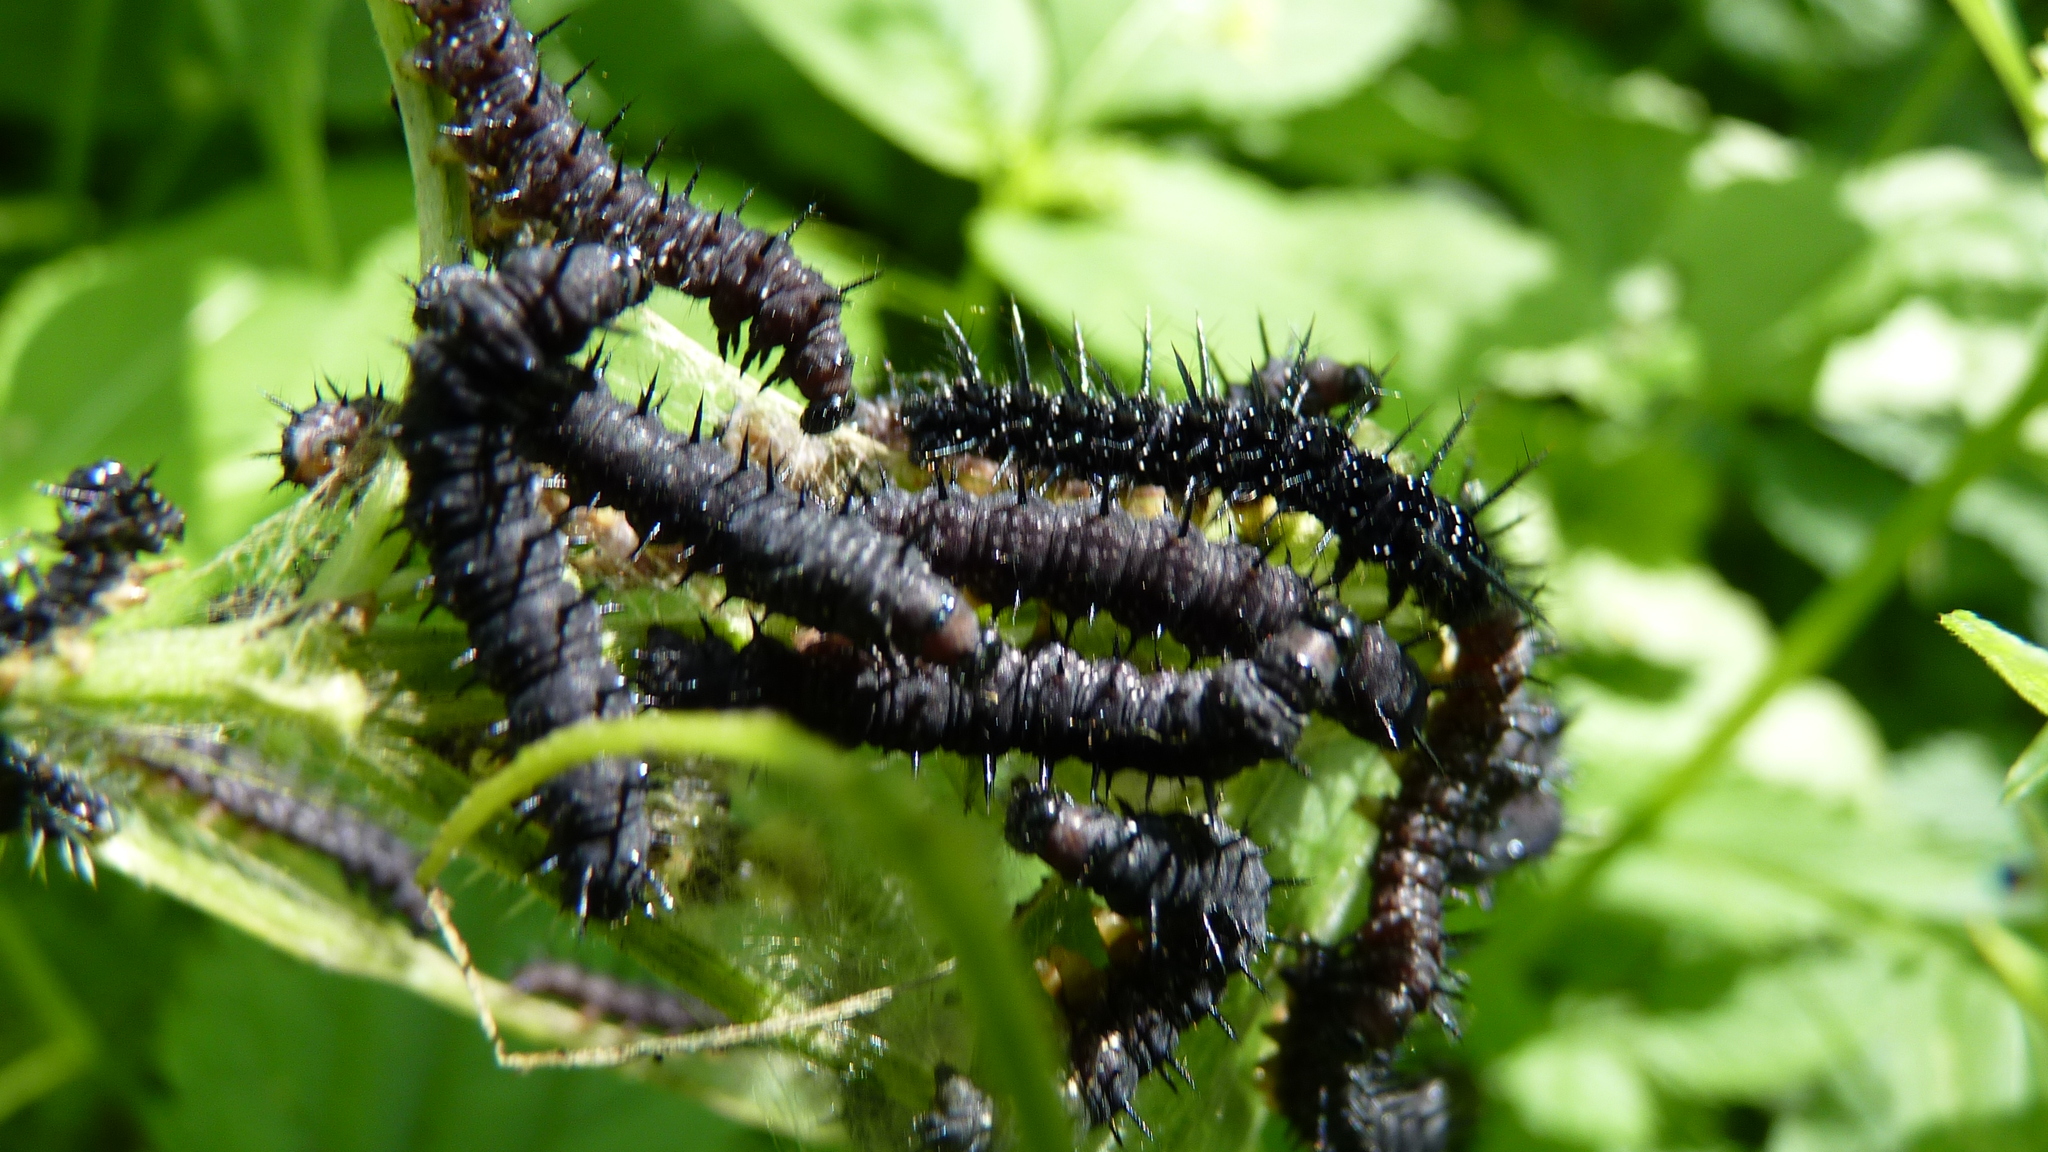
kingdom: Animalia
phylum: Arthropoda
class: Insecta
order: Lepidoptera
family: Nymphalidae
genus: Aglais
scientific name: Aglais io
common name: Peacock
